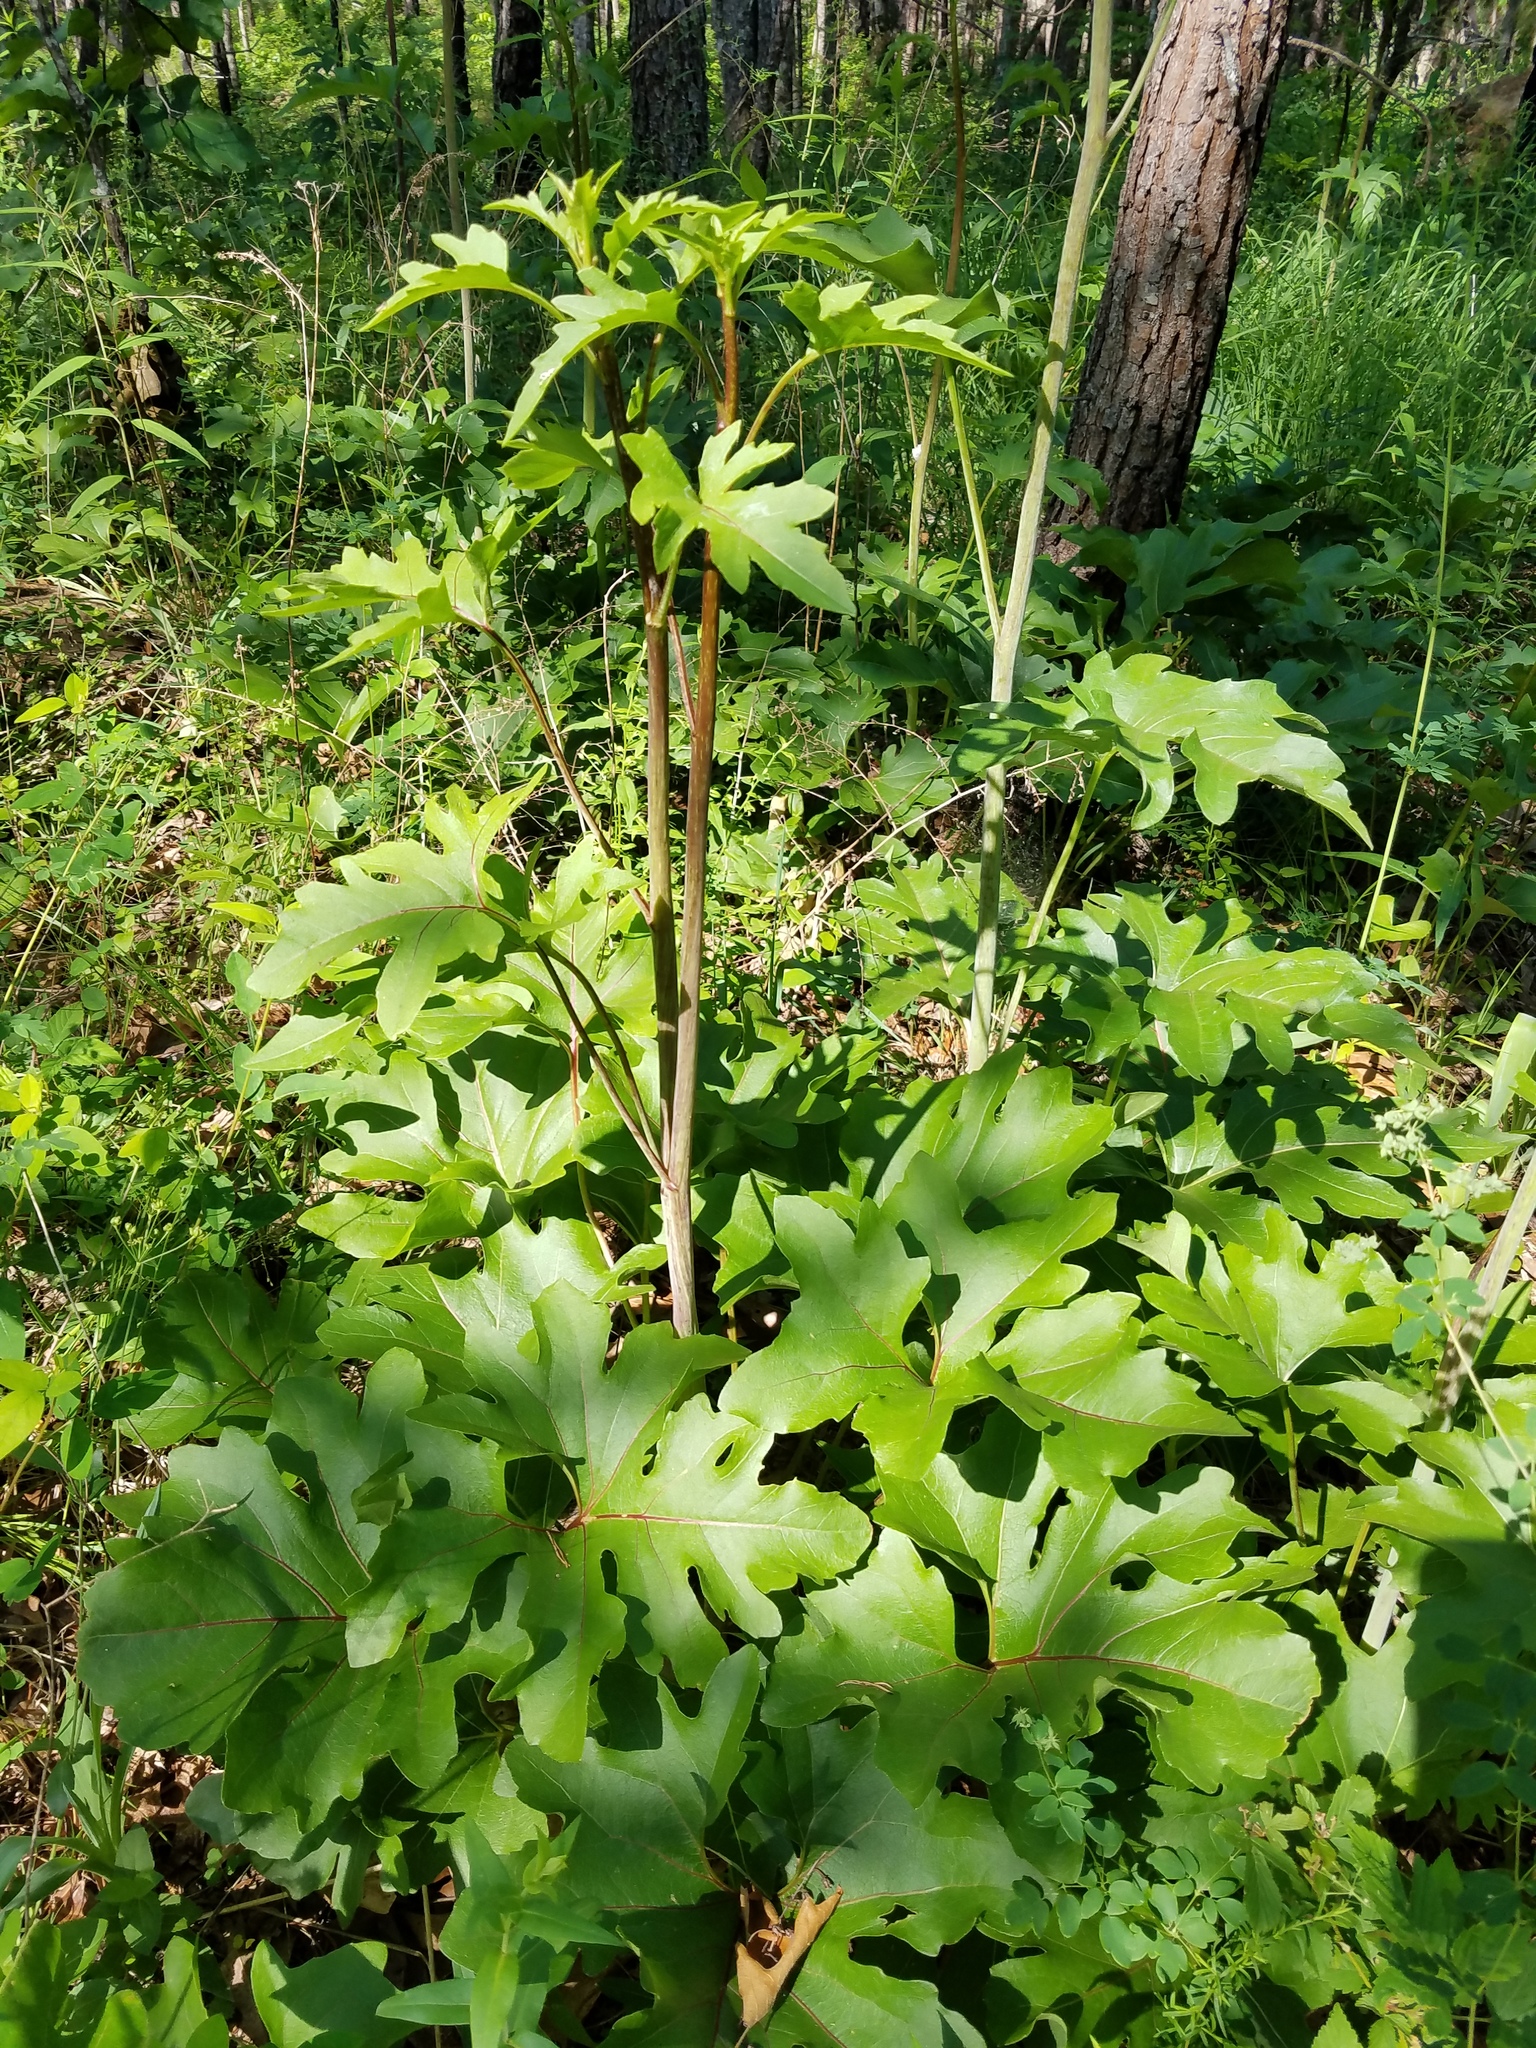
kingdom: Plantae
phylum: Tracheophyta
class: Magnoliopsida
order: Asterales
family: Asteraceae
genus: Silphium
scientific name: Silphium compositum
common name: Lesser basal-leaf rosinweed
